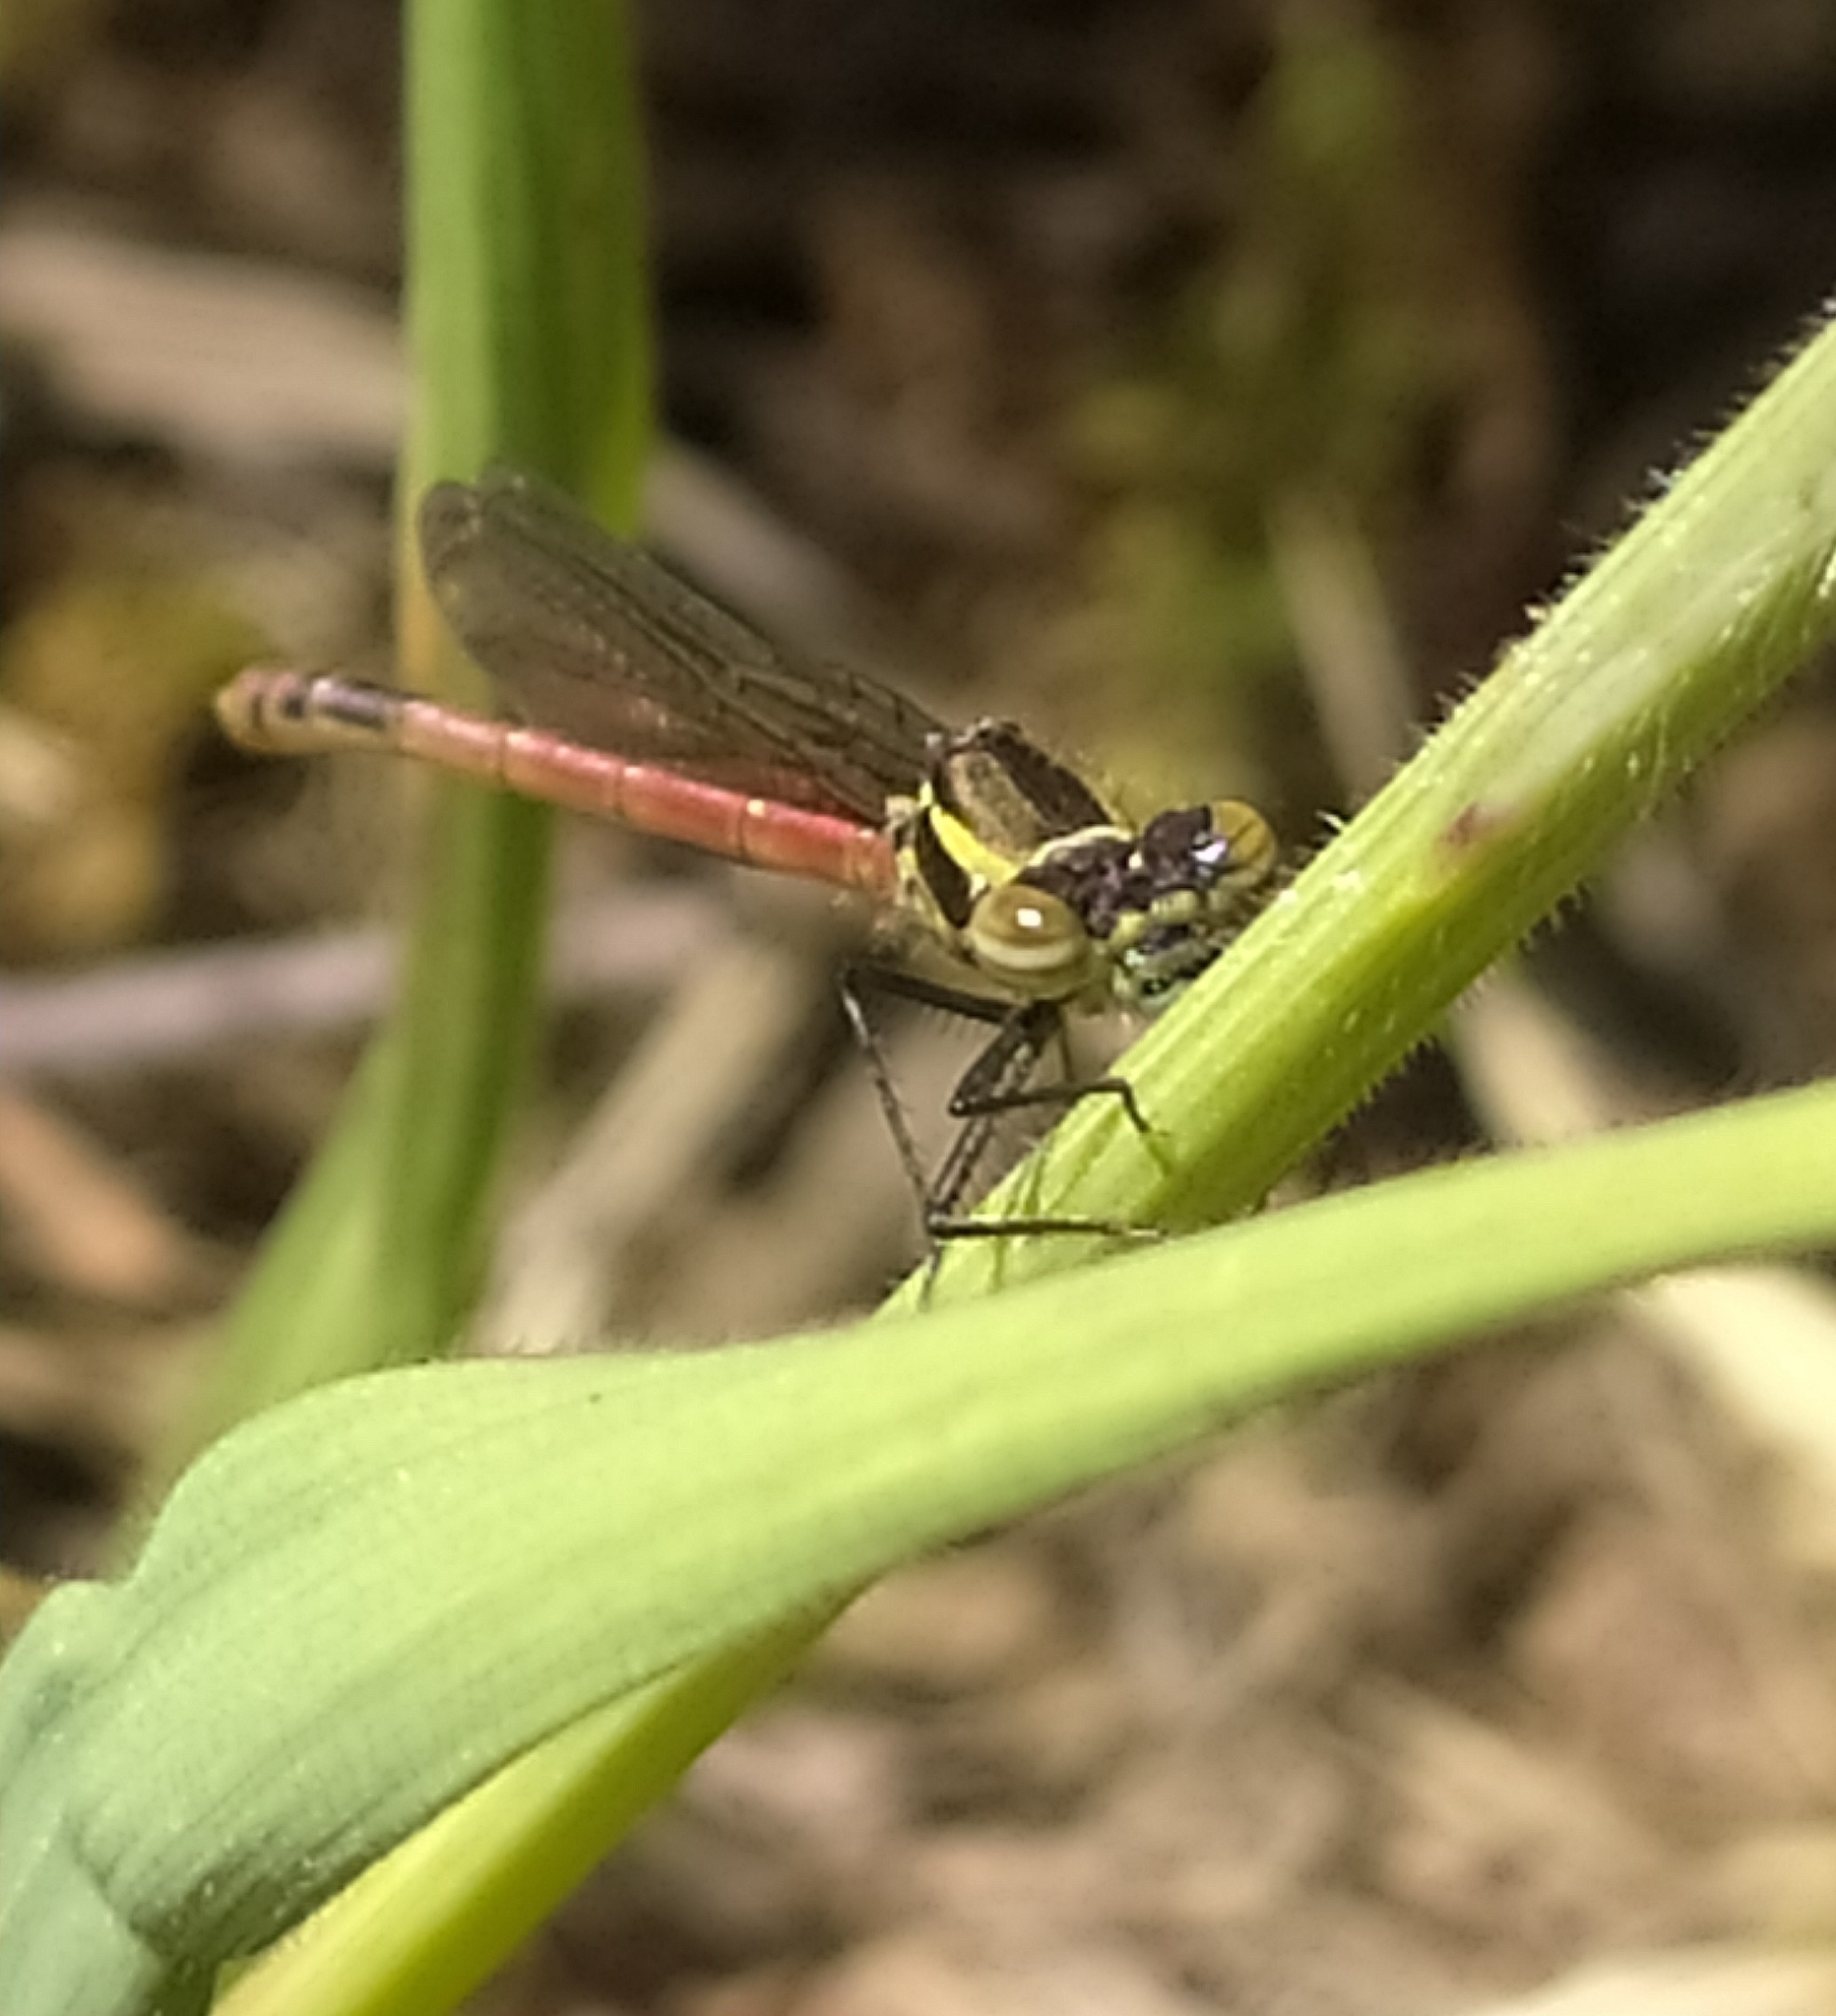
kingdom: Animalia
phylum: Arthropoda
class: Insecta
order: Odonata
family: Coenagrionidae
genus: Pyrrhosoma
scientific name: Pyrrhosoma nymphula
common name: Large red damsel
